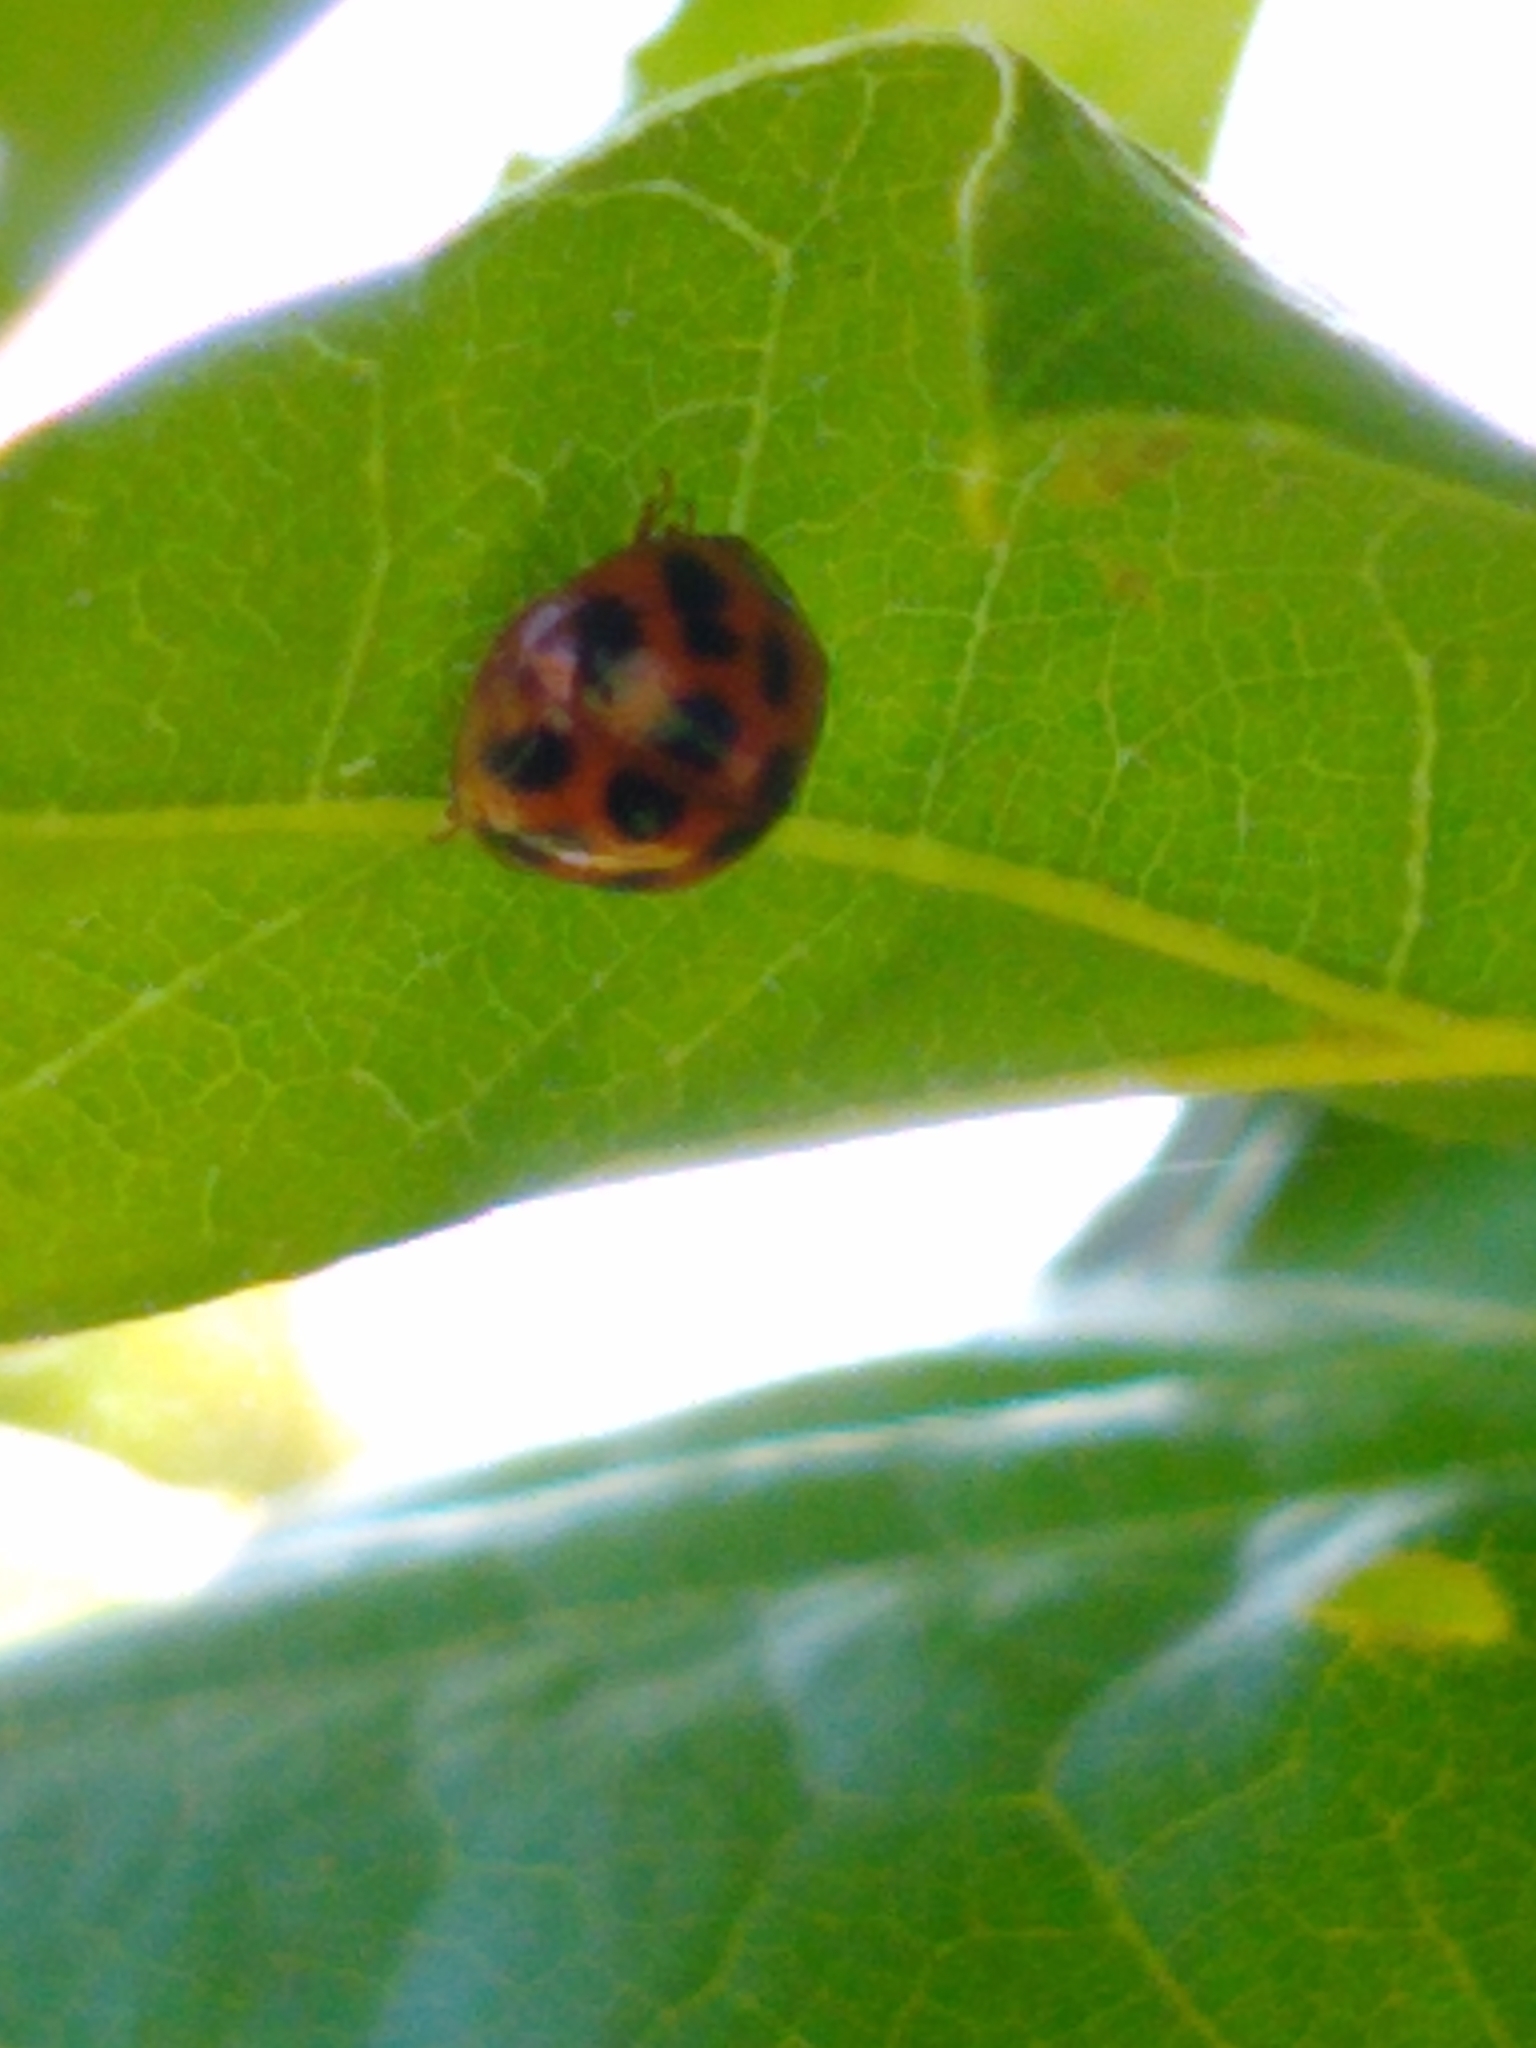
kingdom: Animalia
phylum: Arthropoda
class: Insecta
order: Coleoptera
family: Coccinellidae
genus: Harmonia
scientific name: Harmonia axyridis
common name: Harlequin ladybird
